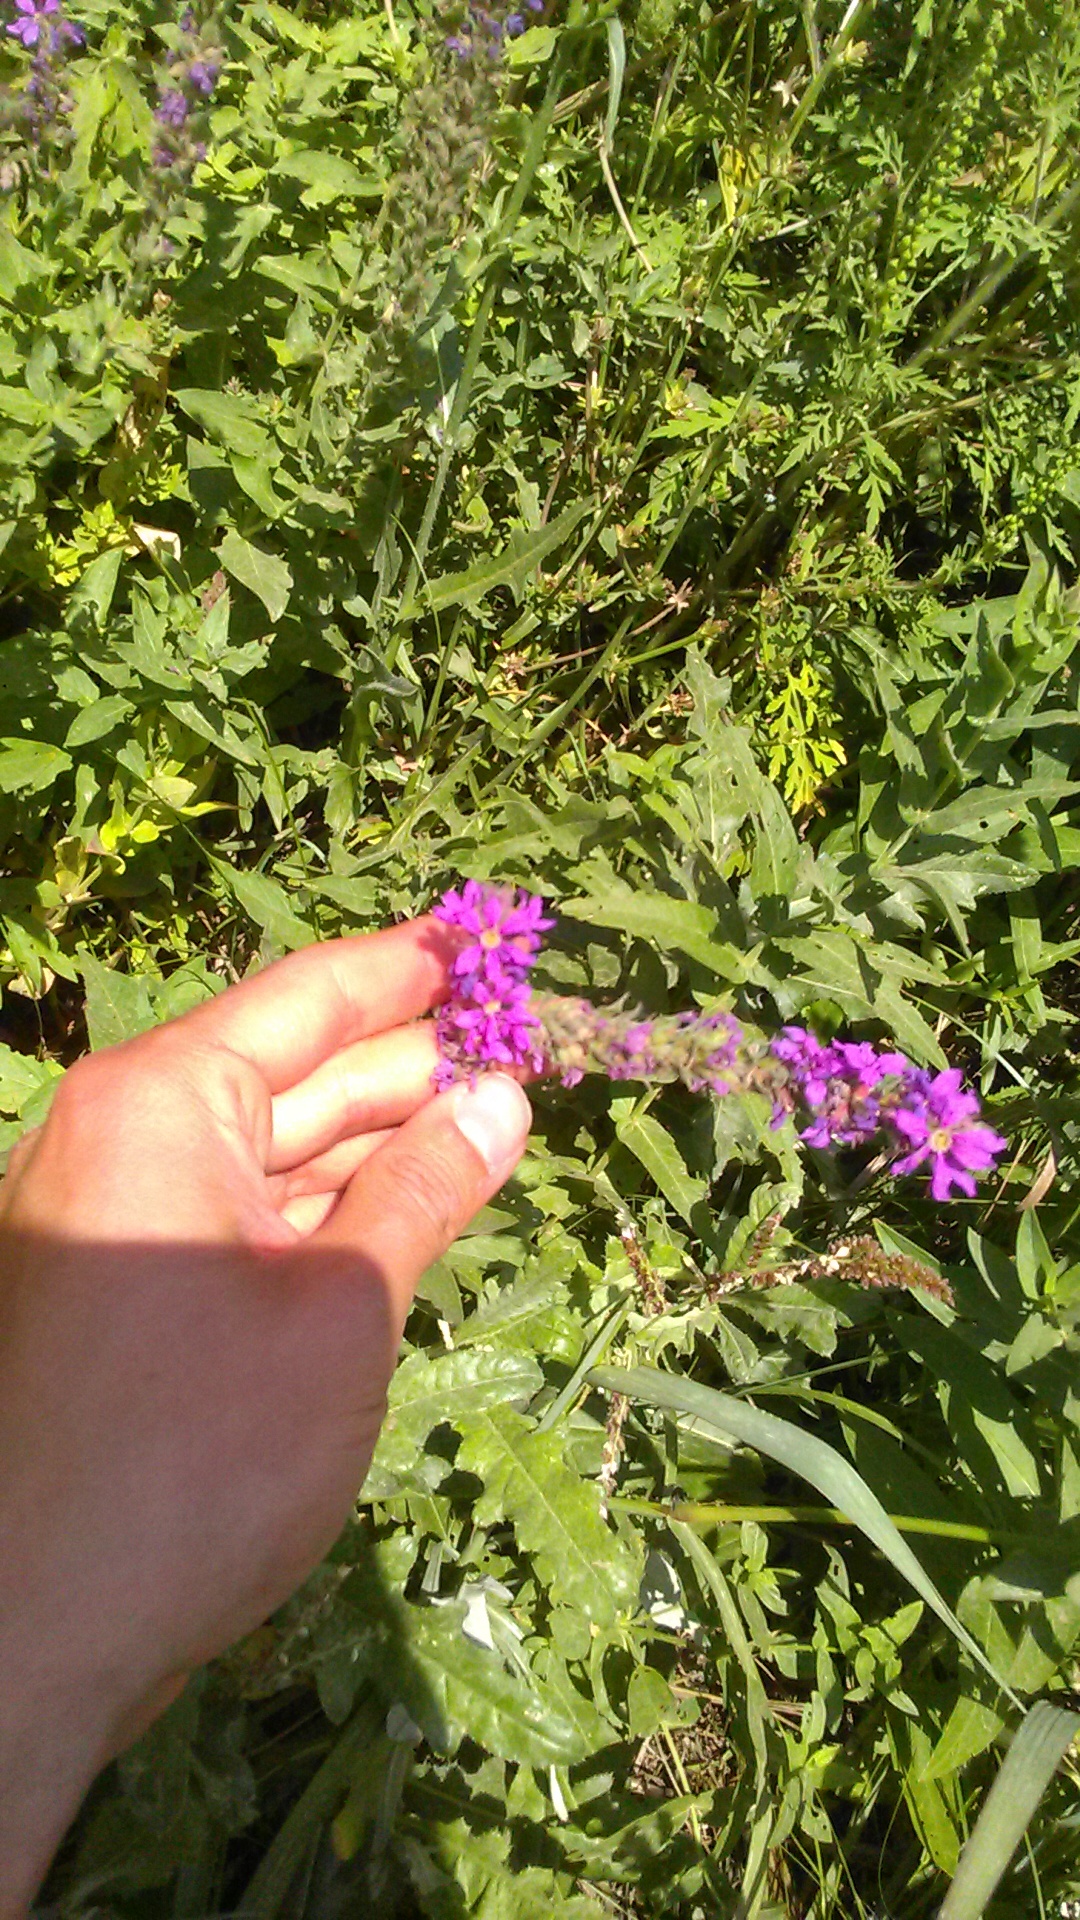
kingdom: Plantae
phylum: Tracheophyta
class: Magnoliopsida
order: Myrtales
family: Lythraceae
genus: Lythrum
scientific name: Lythrum salicaria
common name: Purple loosestrife
